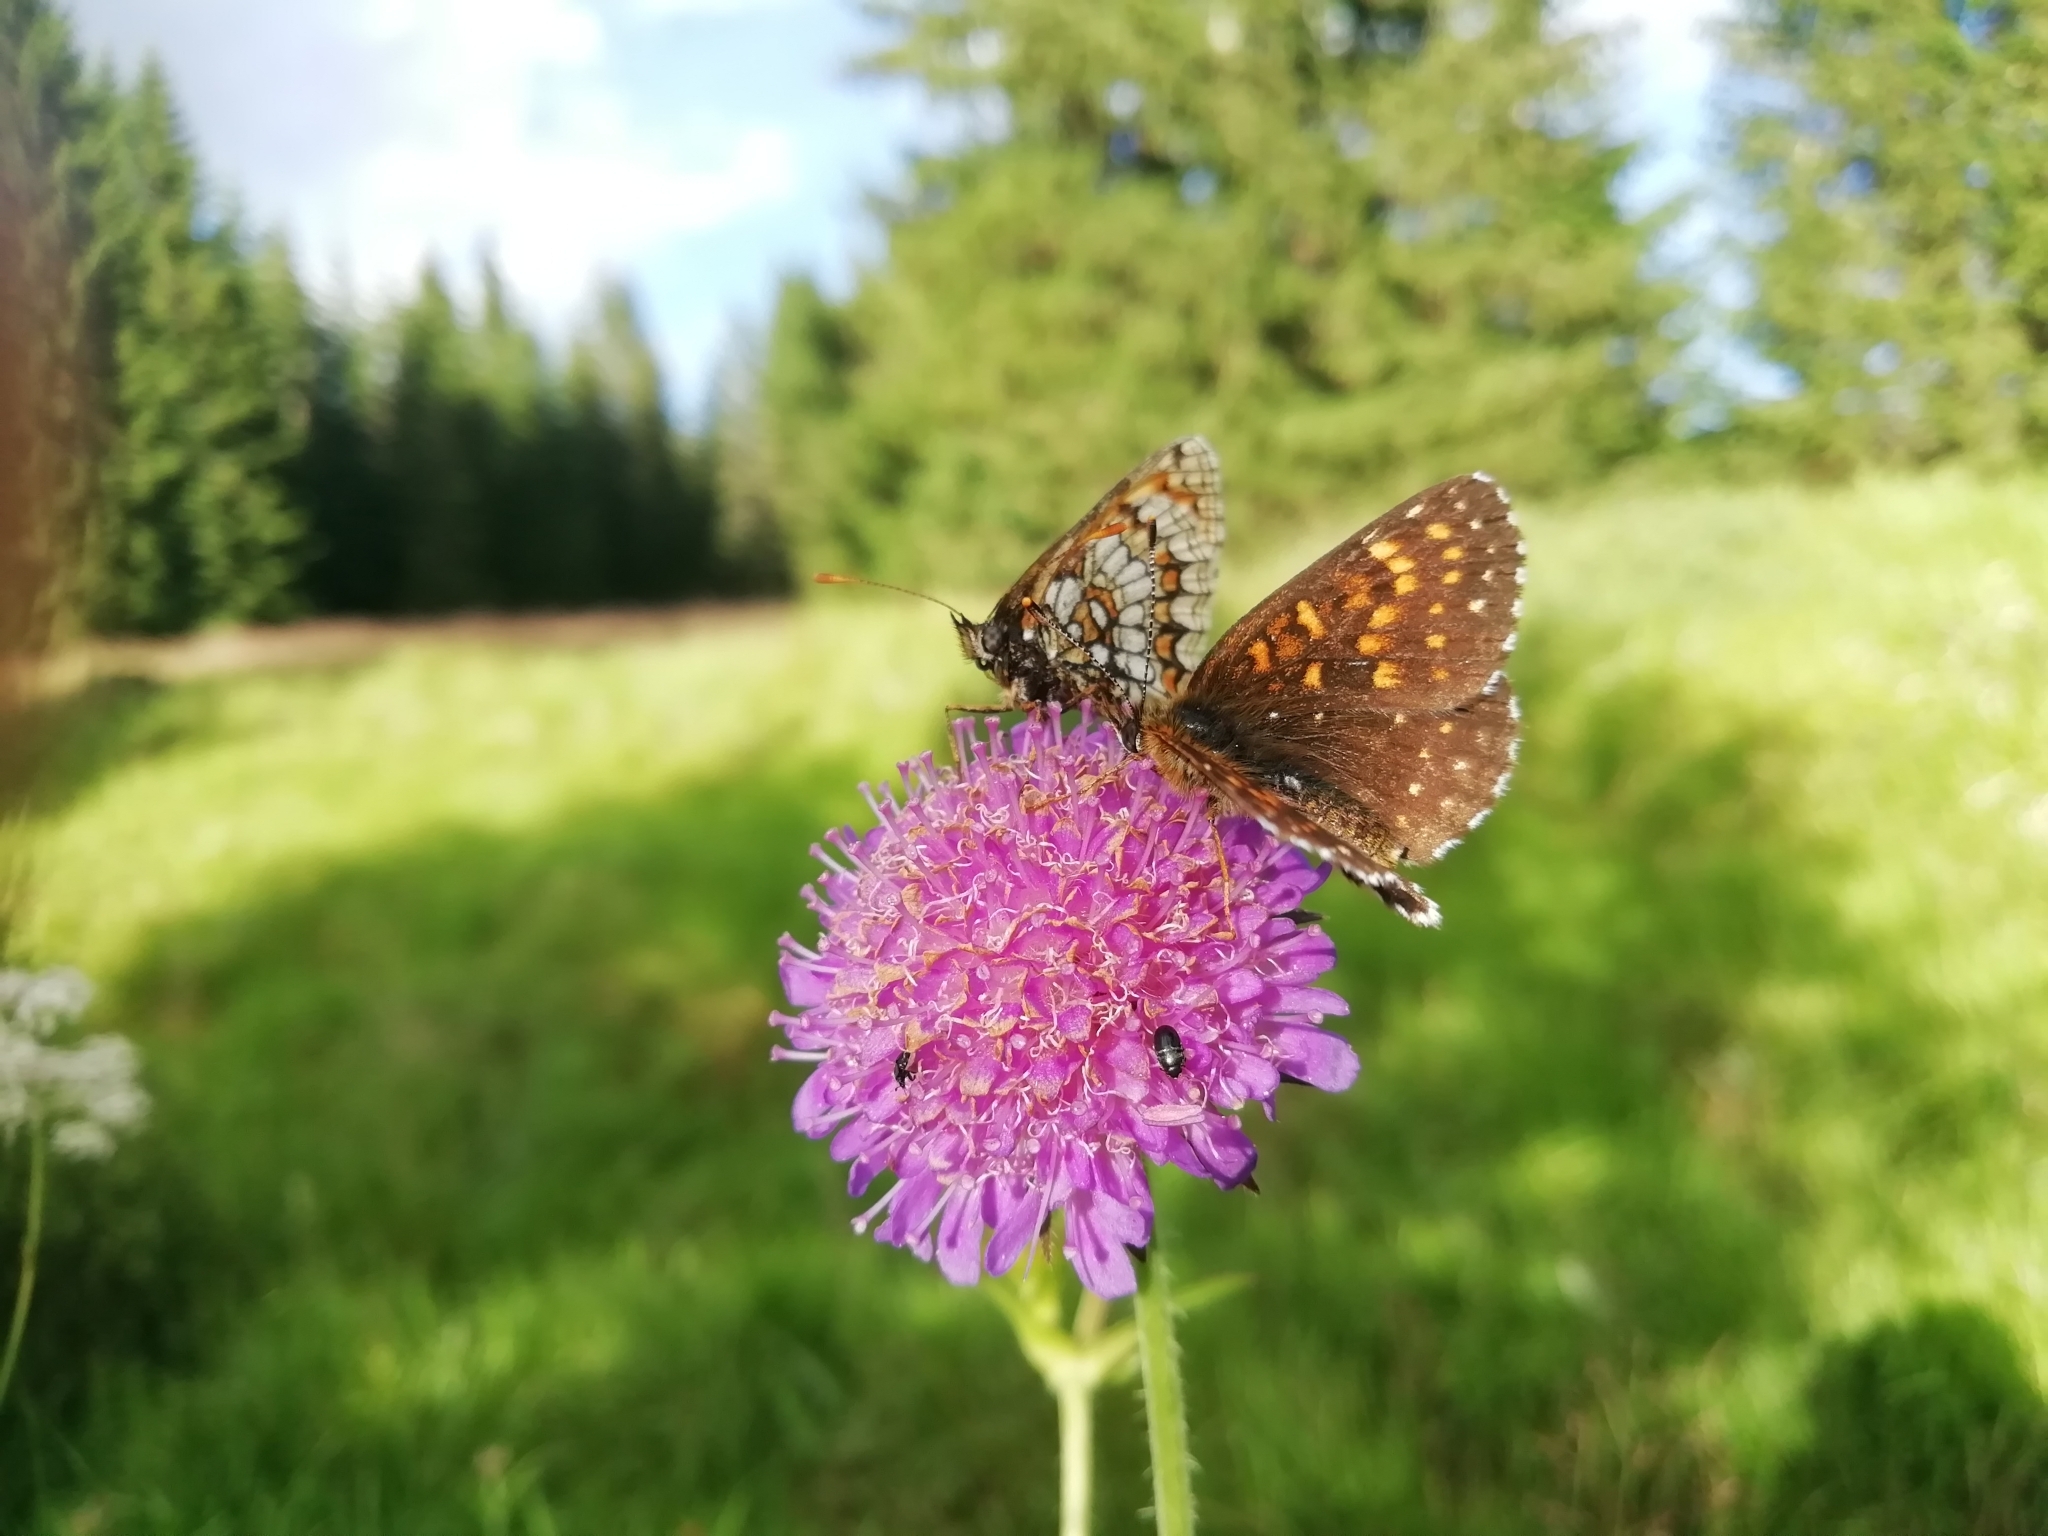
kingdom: Animalia
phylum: Arthropoda
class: Insecta
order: Lepidoptera
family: Nymphalidae
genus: Melitaea
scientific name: Melitaea diamina
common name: False heath fritillary
